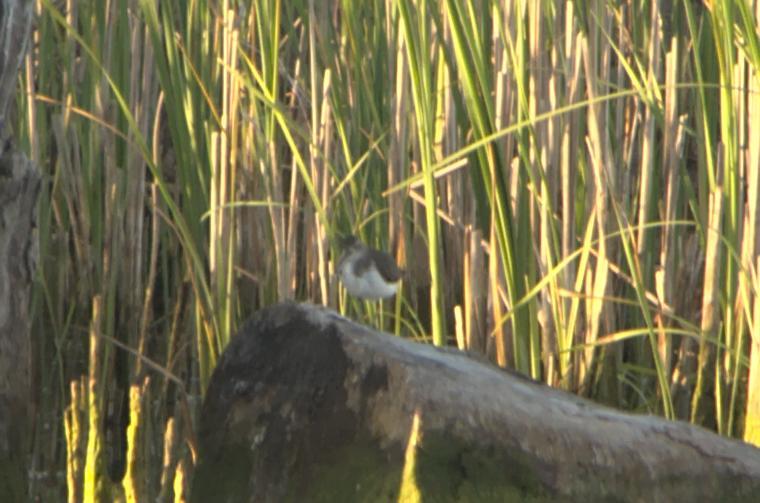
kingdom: Animalia
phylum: Chordata
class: Aves
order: Charadriiformes
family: Scolopacidae
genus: Actitis
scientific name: Actitis hypoleucos
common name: Common sandpiper
